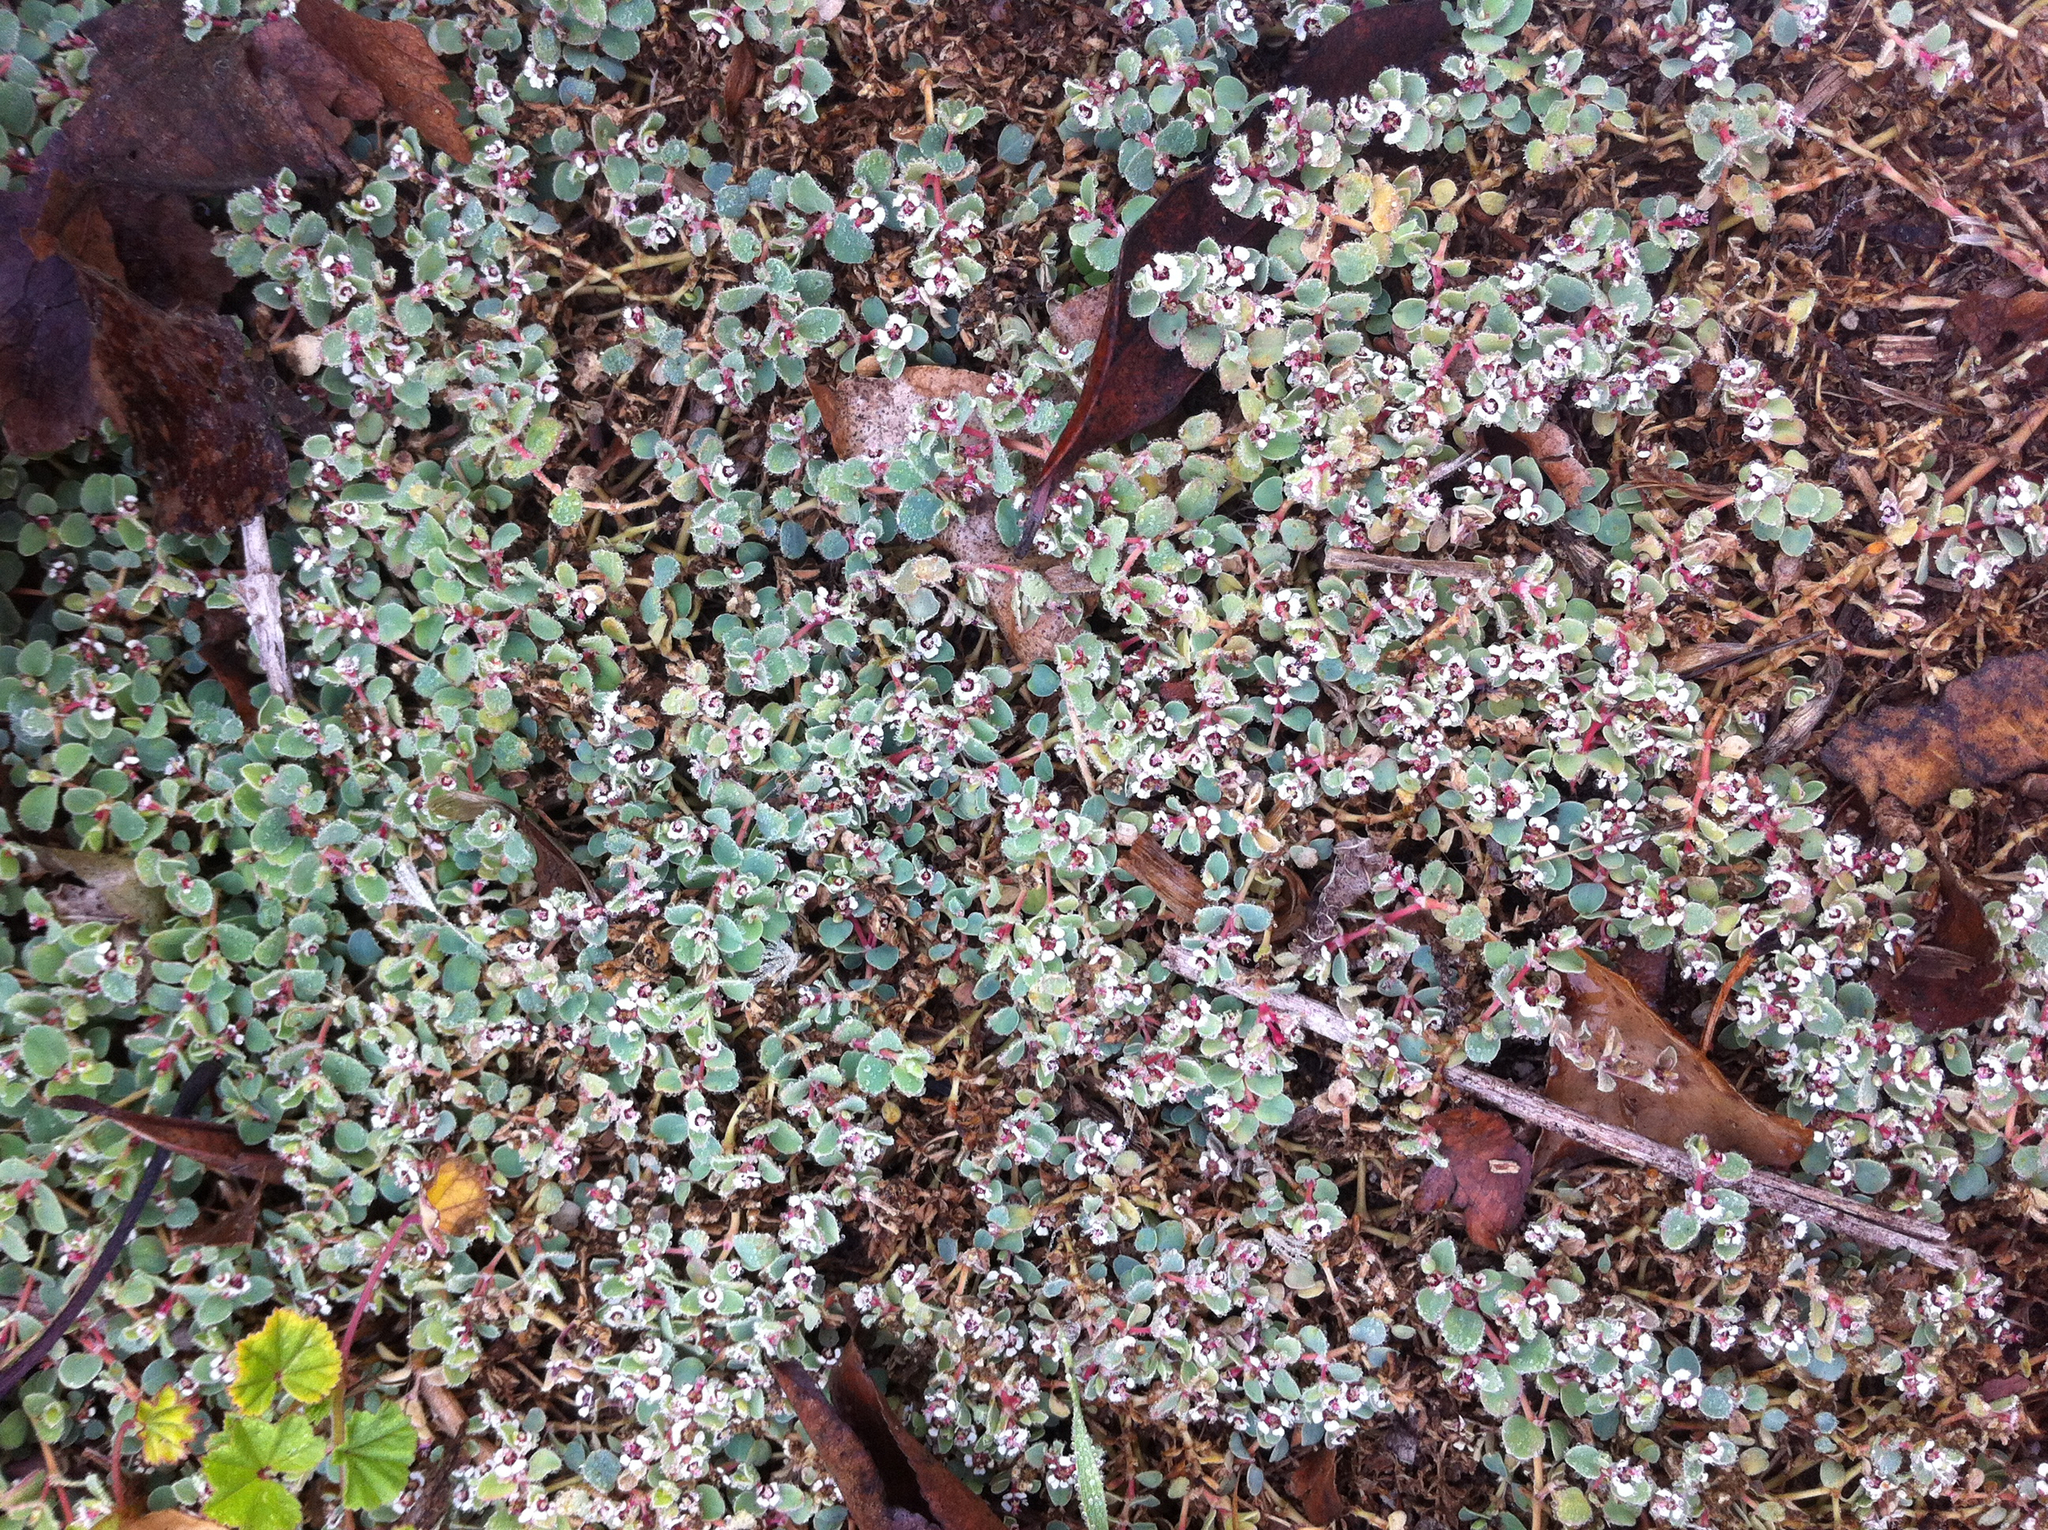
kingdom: Plantae
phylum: Tracheophyta
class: Magnoliopsida
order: Malpighiales
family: Euphorbiaceae
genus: Euphorbia
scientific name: Euphorbia albomarginata
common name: Whitemargin sandmat
